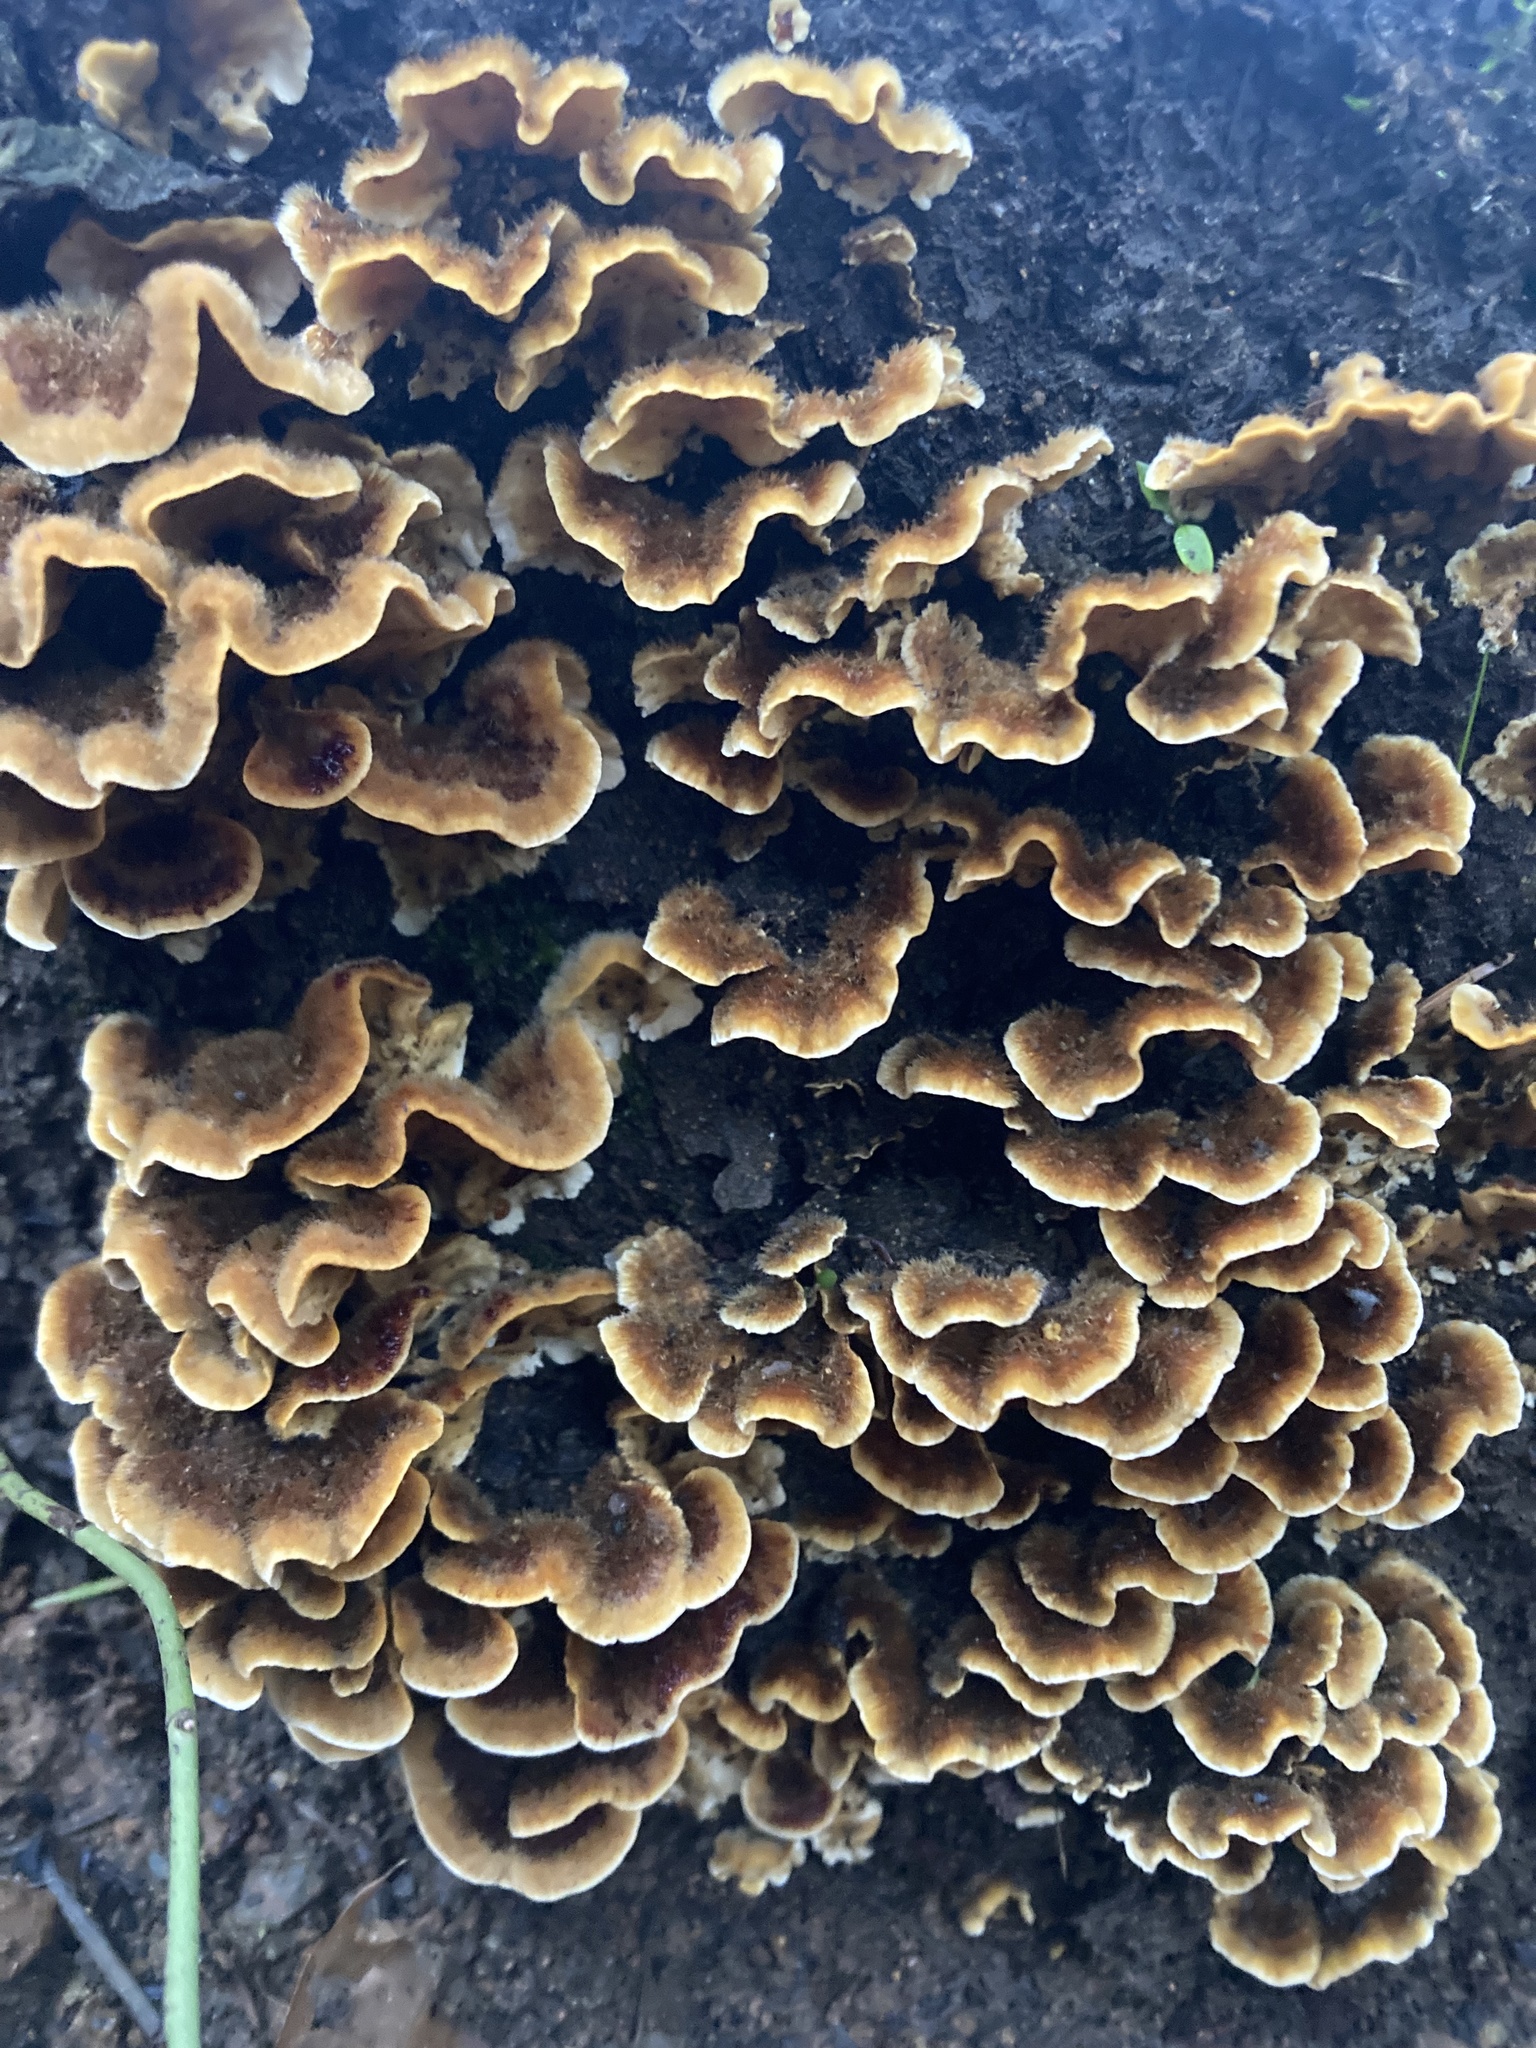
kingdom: Fungi
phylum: Basidiomycota
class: Agaricomycetes
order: Russulales
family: Stereaceae
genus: Stereum
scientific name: Stereum hirsutum
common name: Hairy curtain crust
